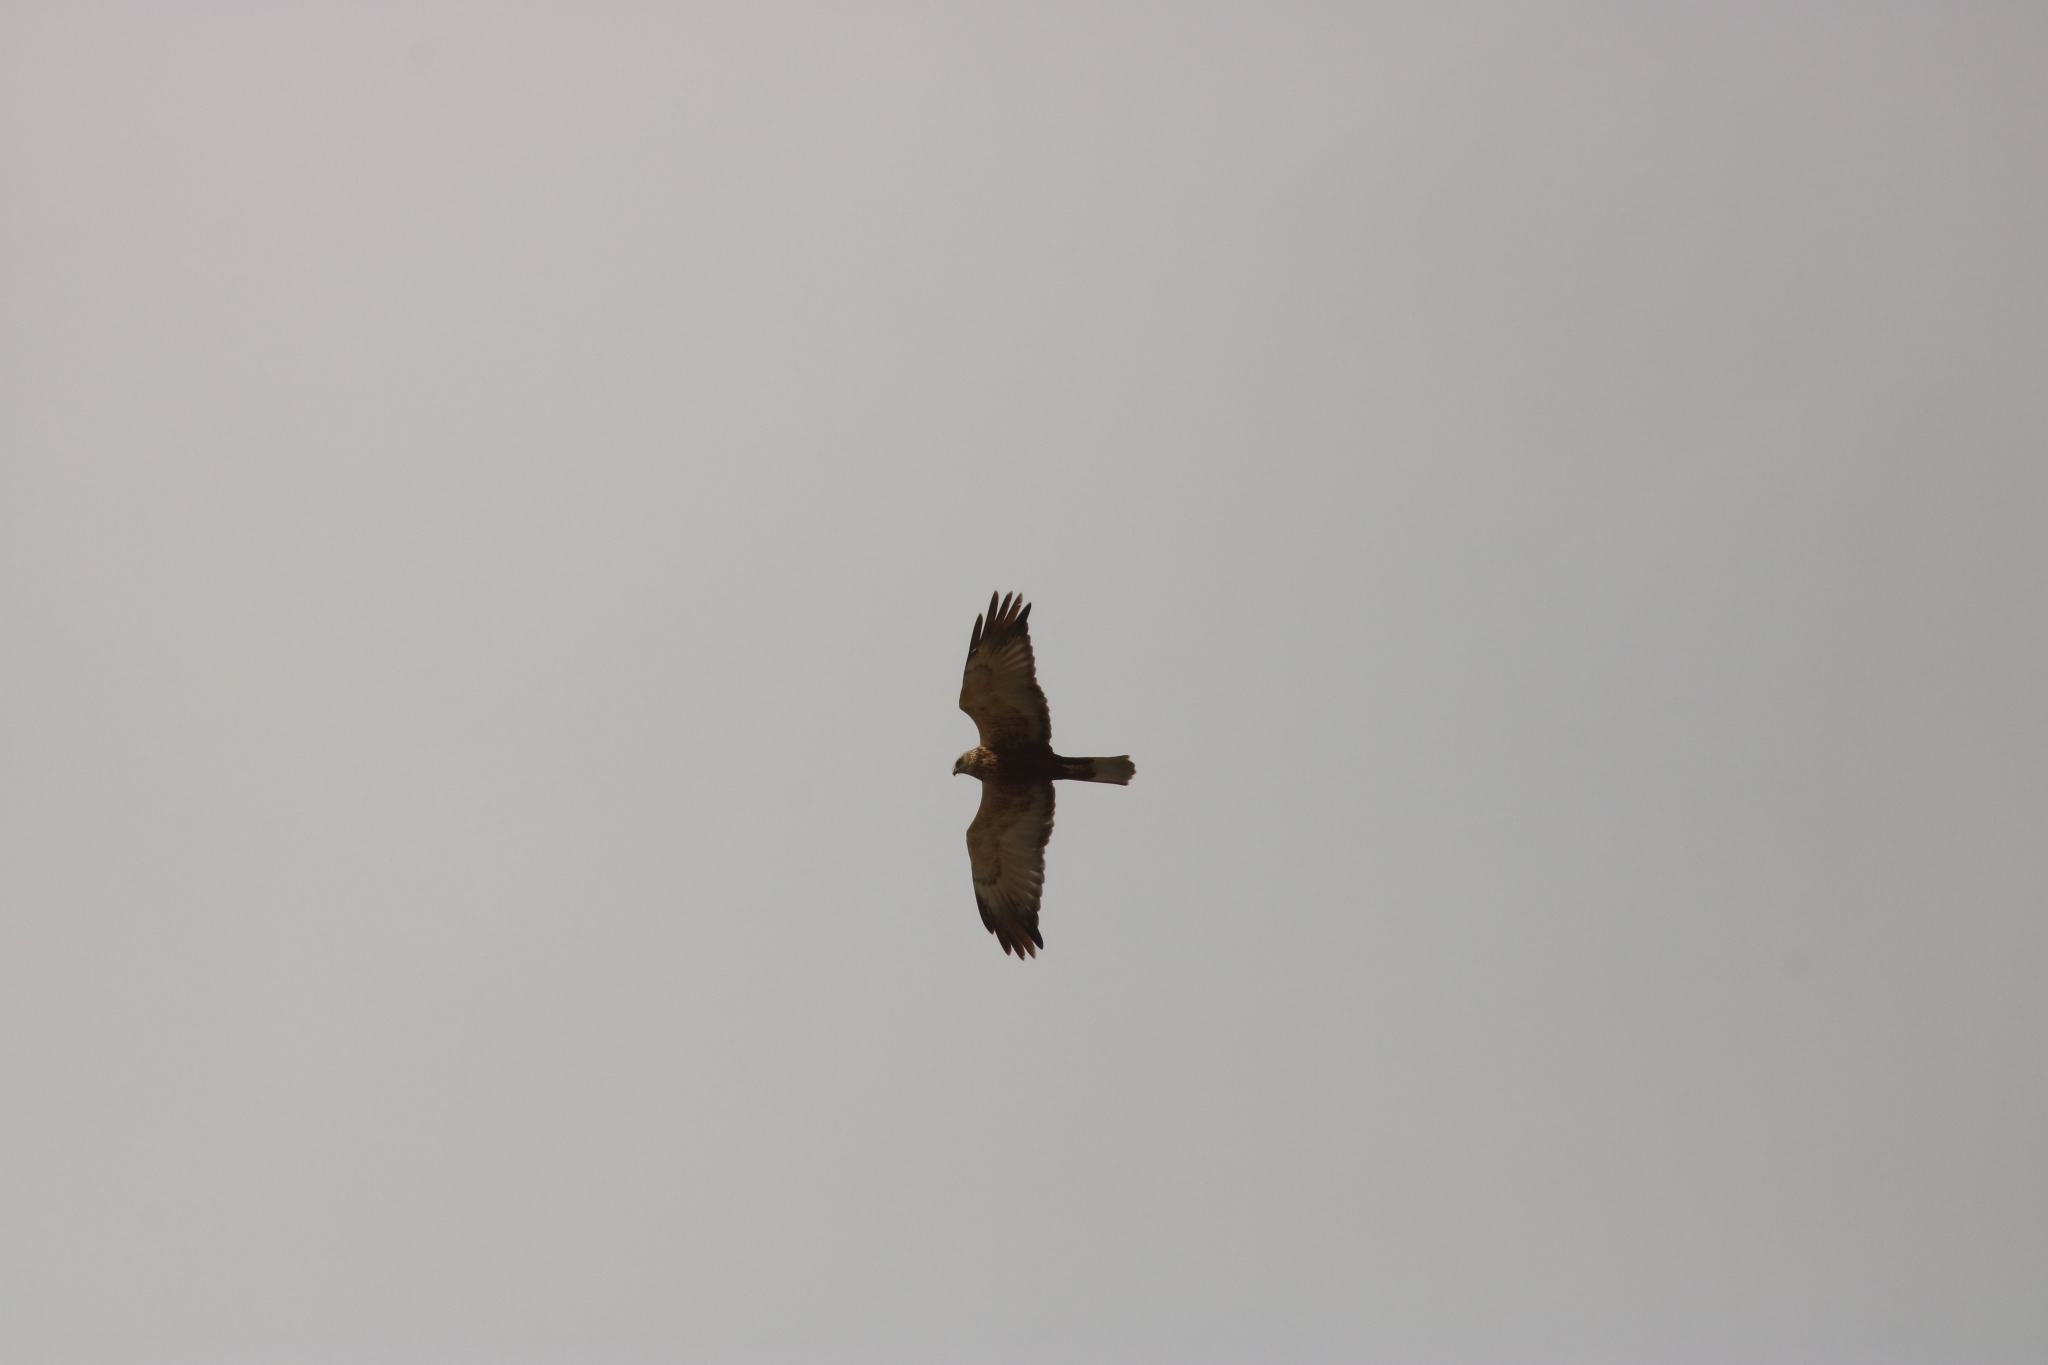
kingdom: Animalia
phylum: Chordata
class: Aves
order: Accipitriformes
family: Accipitridae
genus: Circus
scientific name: Circus aeruginosus
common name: Western marsh harrier
